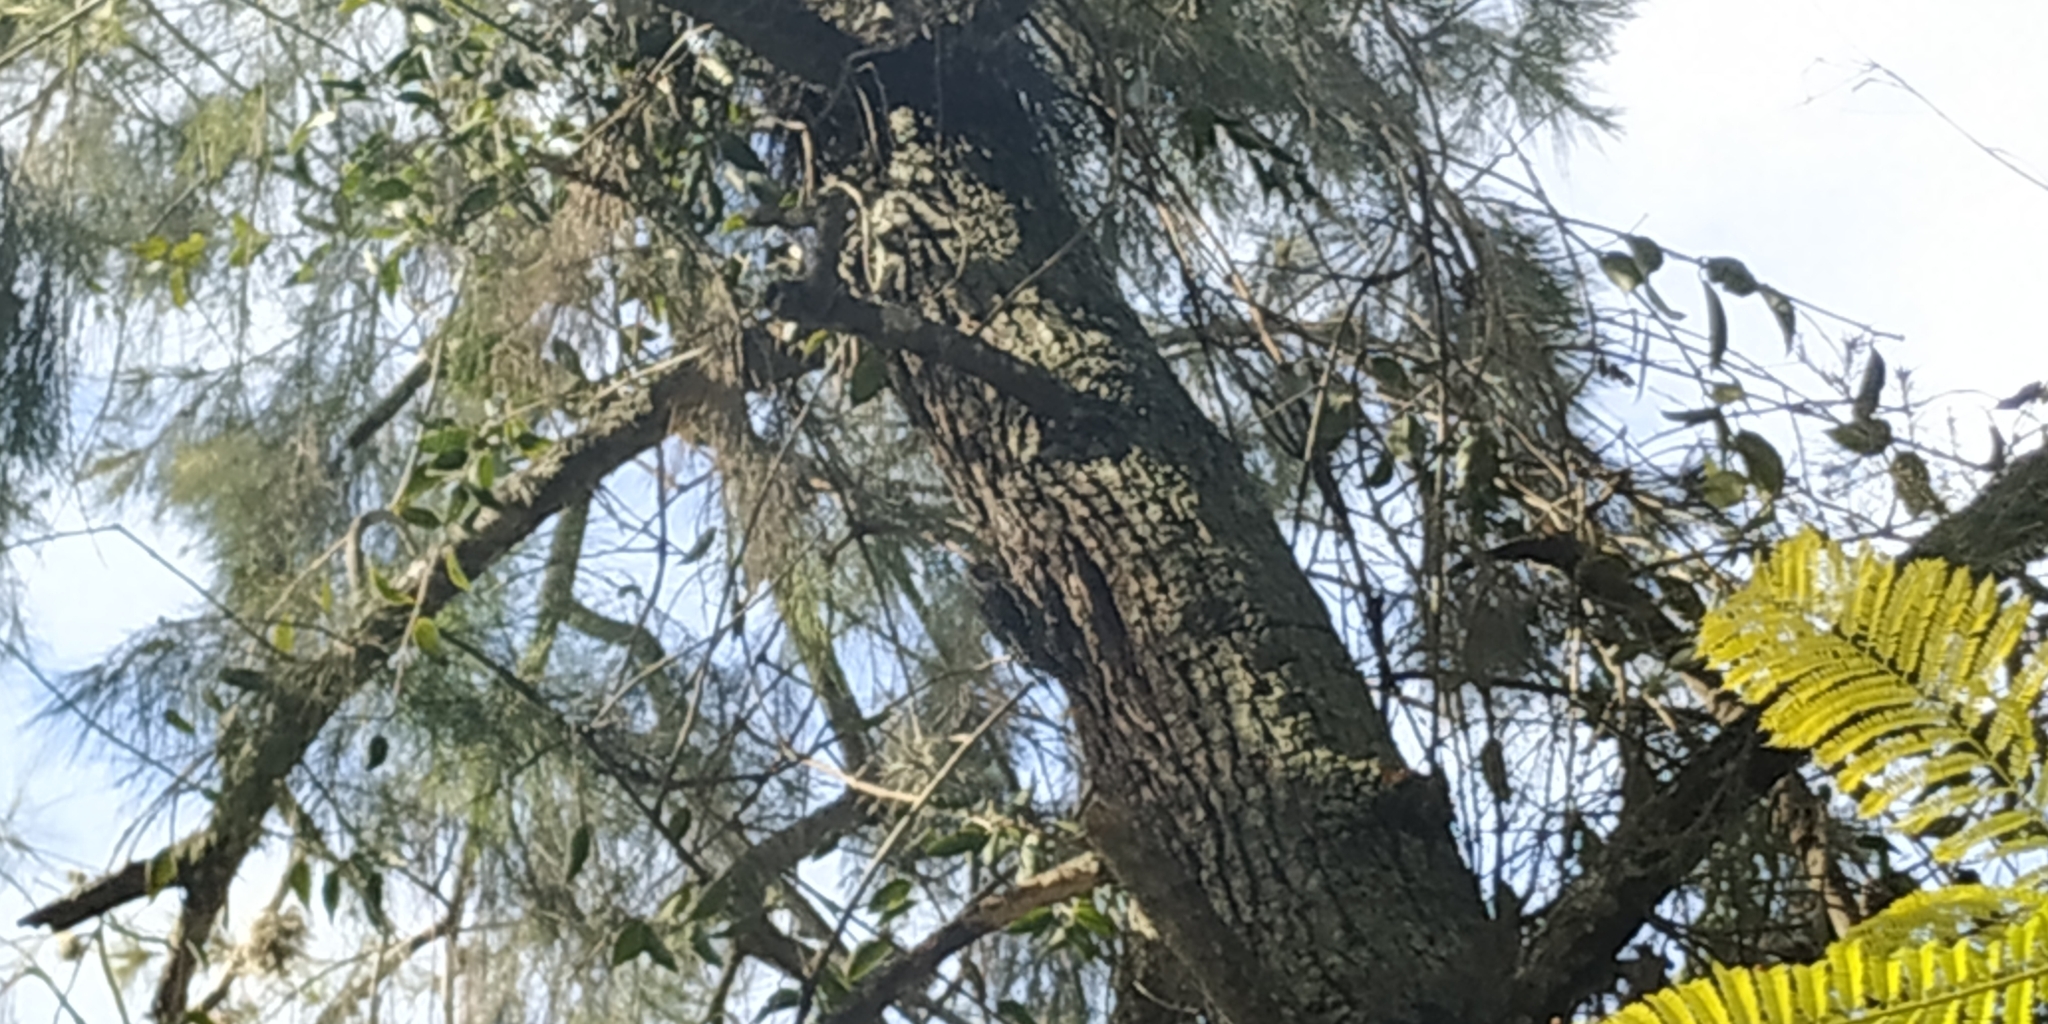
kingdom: Animalia
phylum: Chordata
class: Aves
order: Piciformes
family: Picidae
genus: Sphyrapicus
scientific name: Sphyrapicus varius
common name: Yellow-bellied sapsucker
